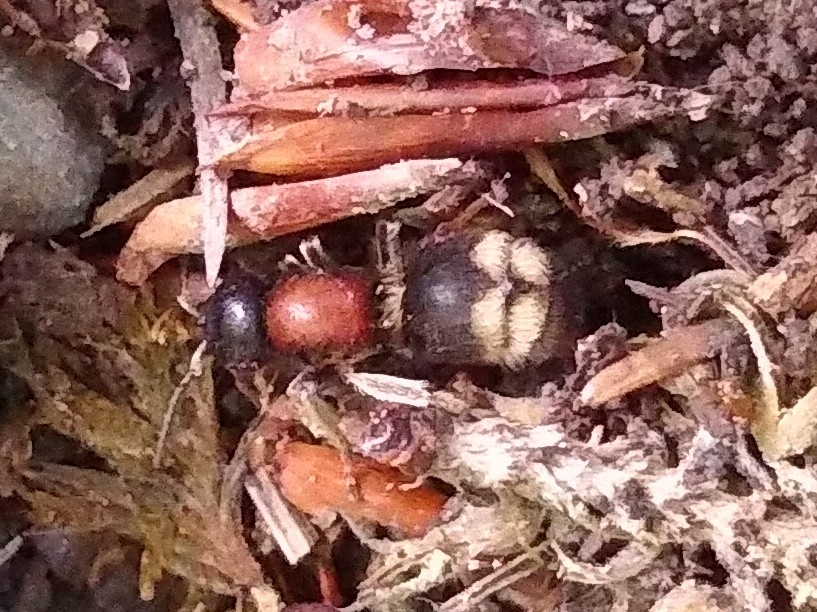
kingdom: Animalia
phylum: Arthropoda
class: Insecta
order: Hymenoptera
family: Mutillidae
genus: Mutilla
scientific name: Mutilla marginata
